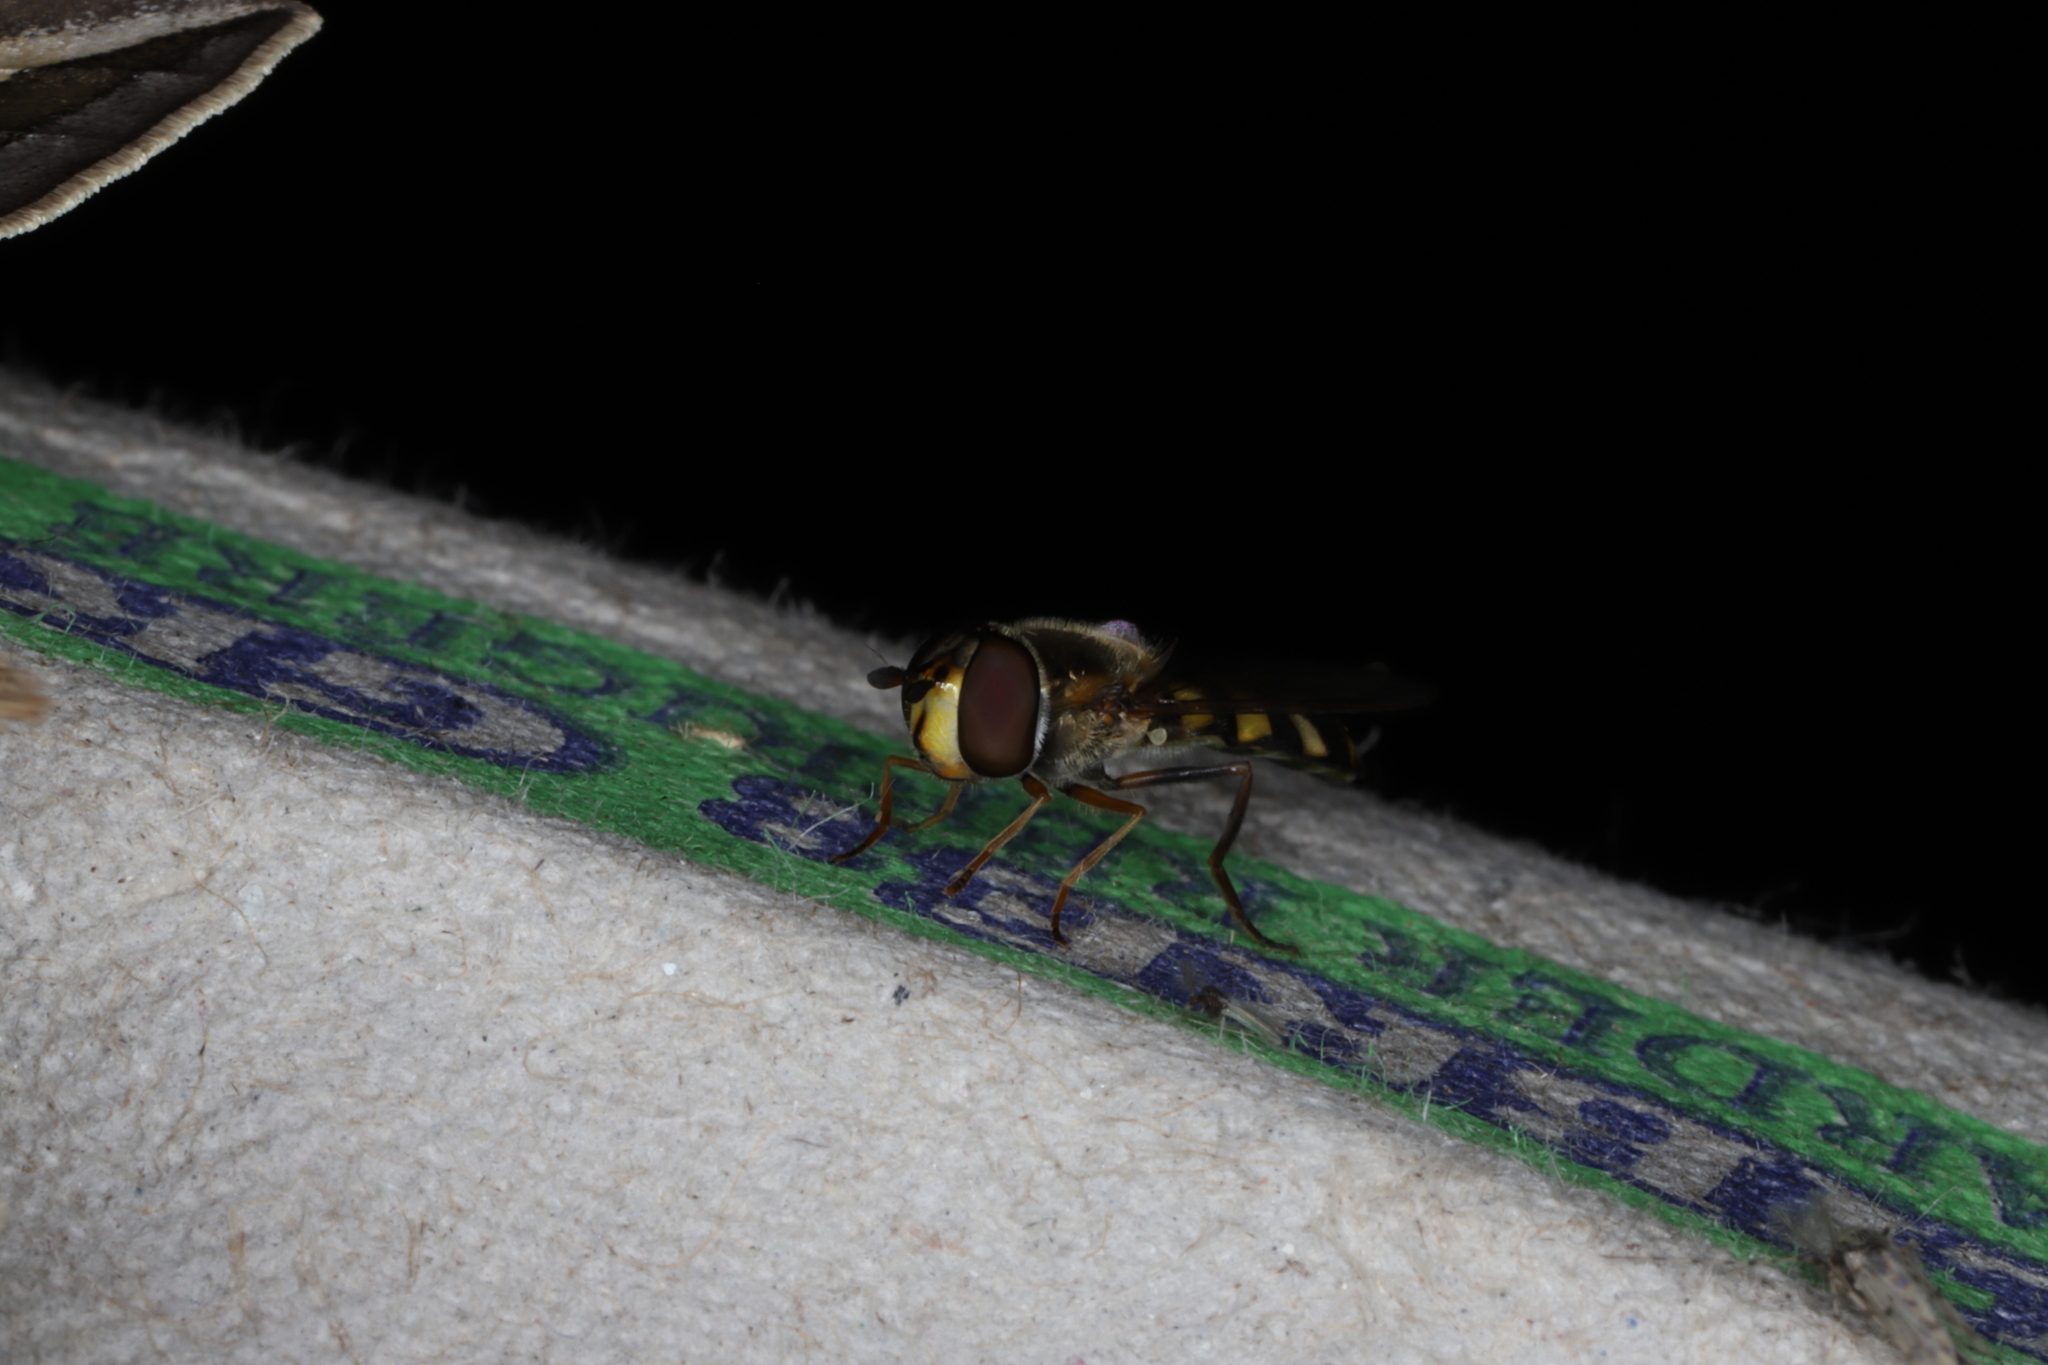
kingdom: Animalia
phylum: Arthropoda
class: Insecta
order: Diptera
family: Syrphidae
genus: Eupeodes
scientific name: Eupeodes
